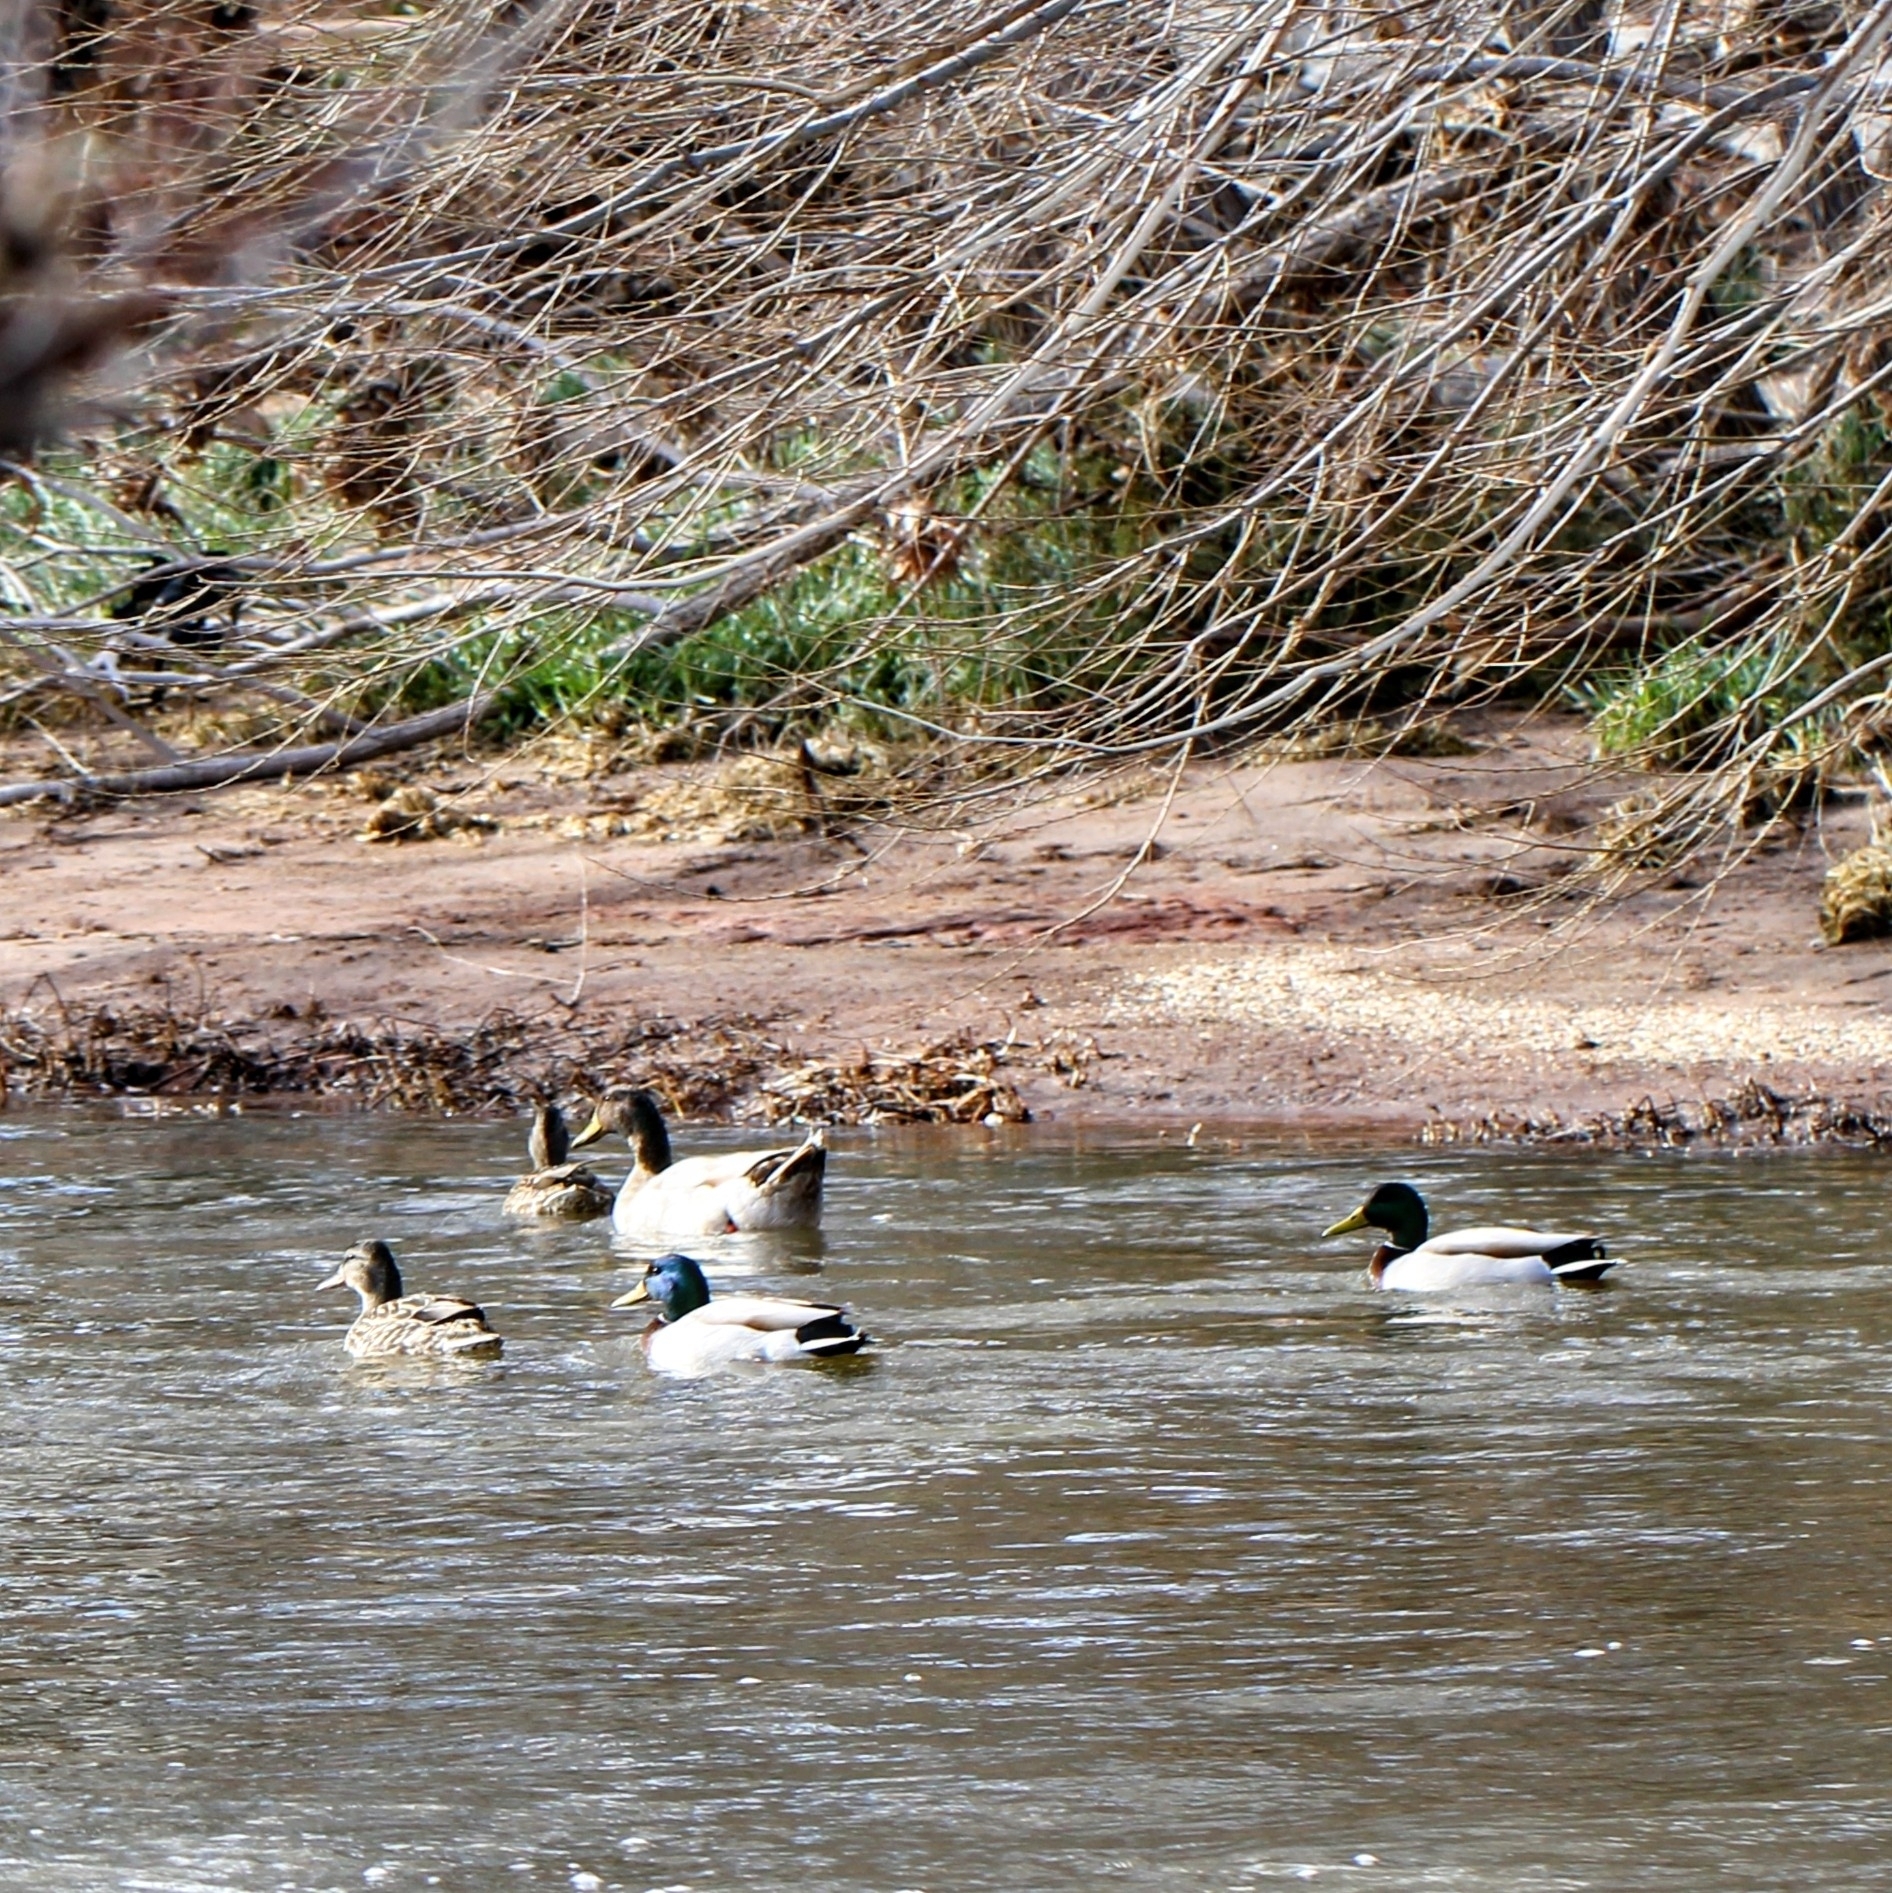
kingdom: Animalia
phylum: Chordata
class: Aves
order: Anseriformes
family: Anatidae
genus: Anas
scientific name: Anas platyrhynchos
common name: Mallard
